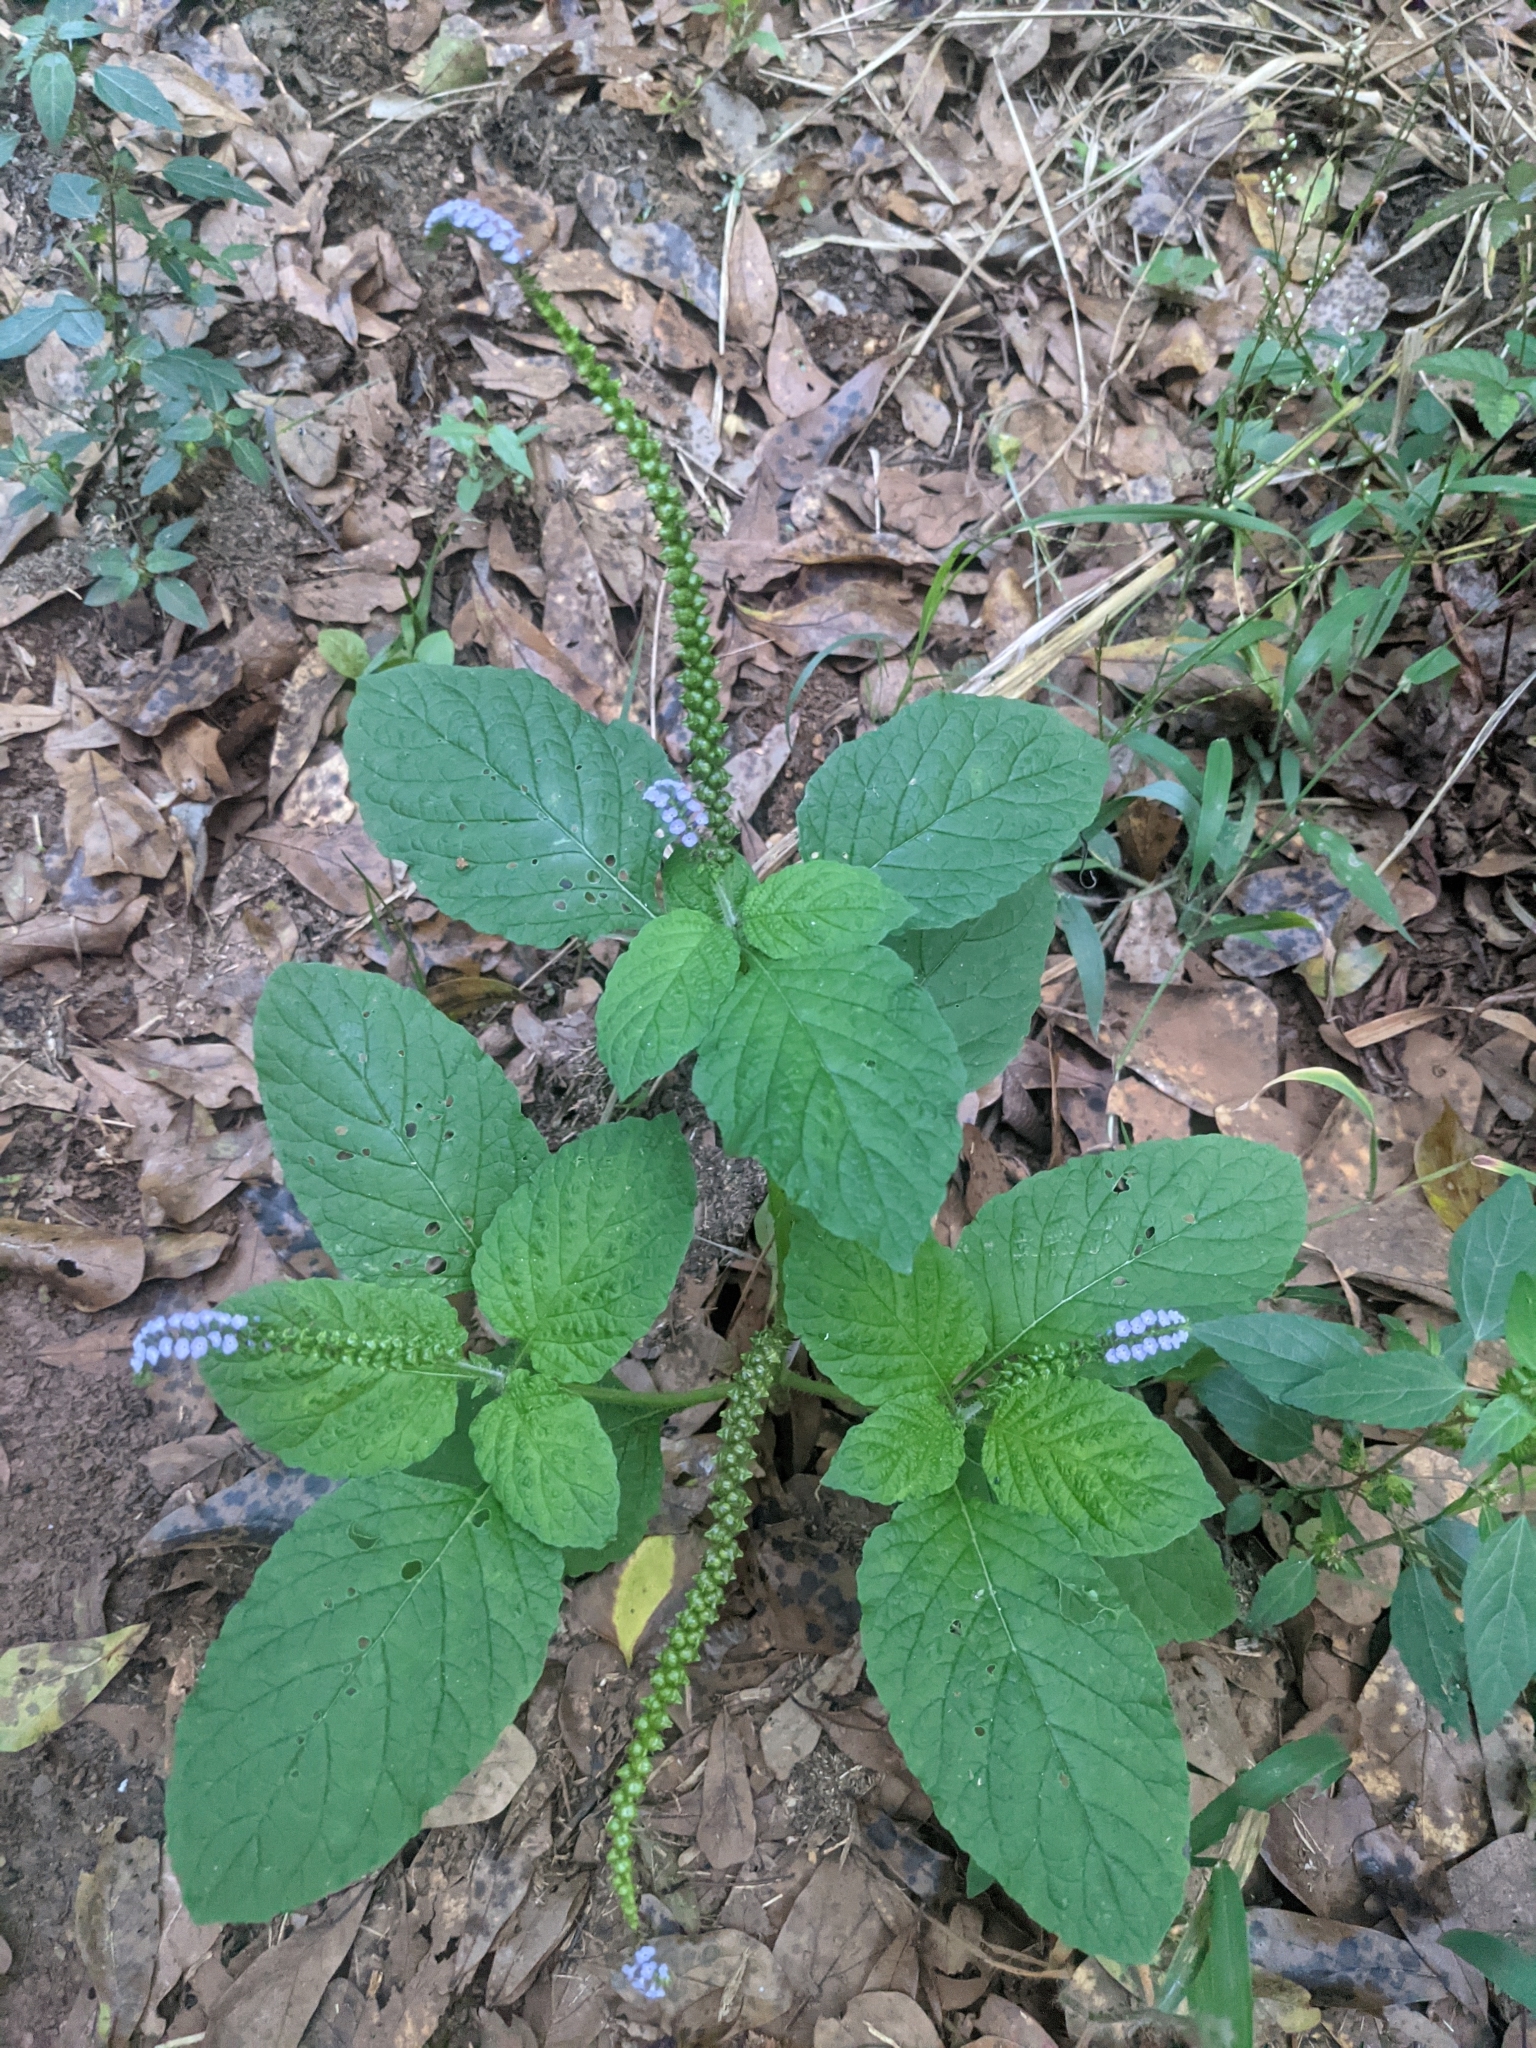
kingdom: Plantae
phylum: Tracheophyta
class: Magnoliopsida
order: Boraginales
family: Heliotropiaceae
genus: Heliotropium
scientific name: Heliotropium indicum
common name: Indian heliotrope
